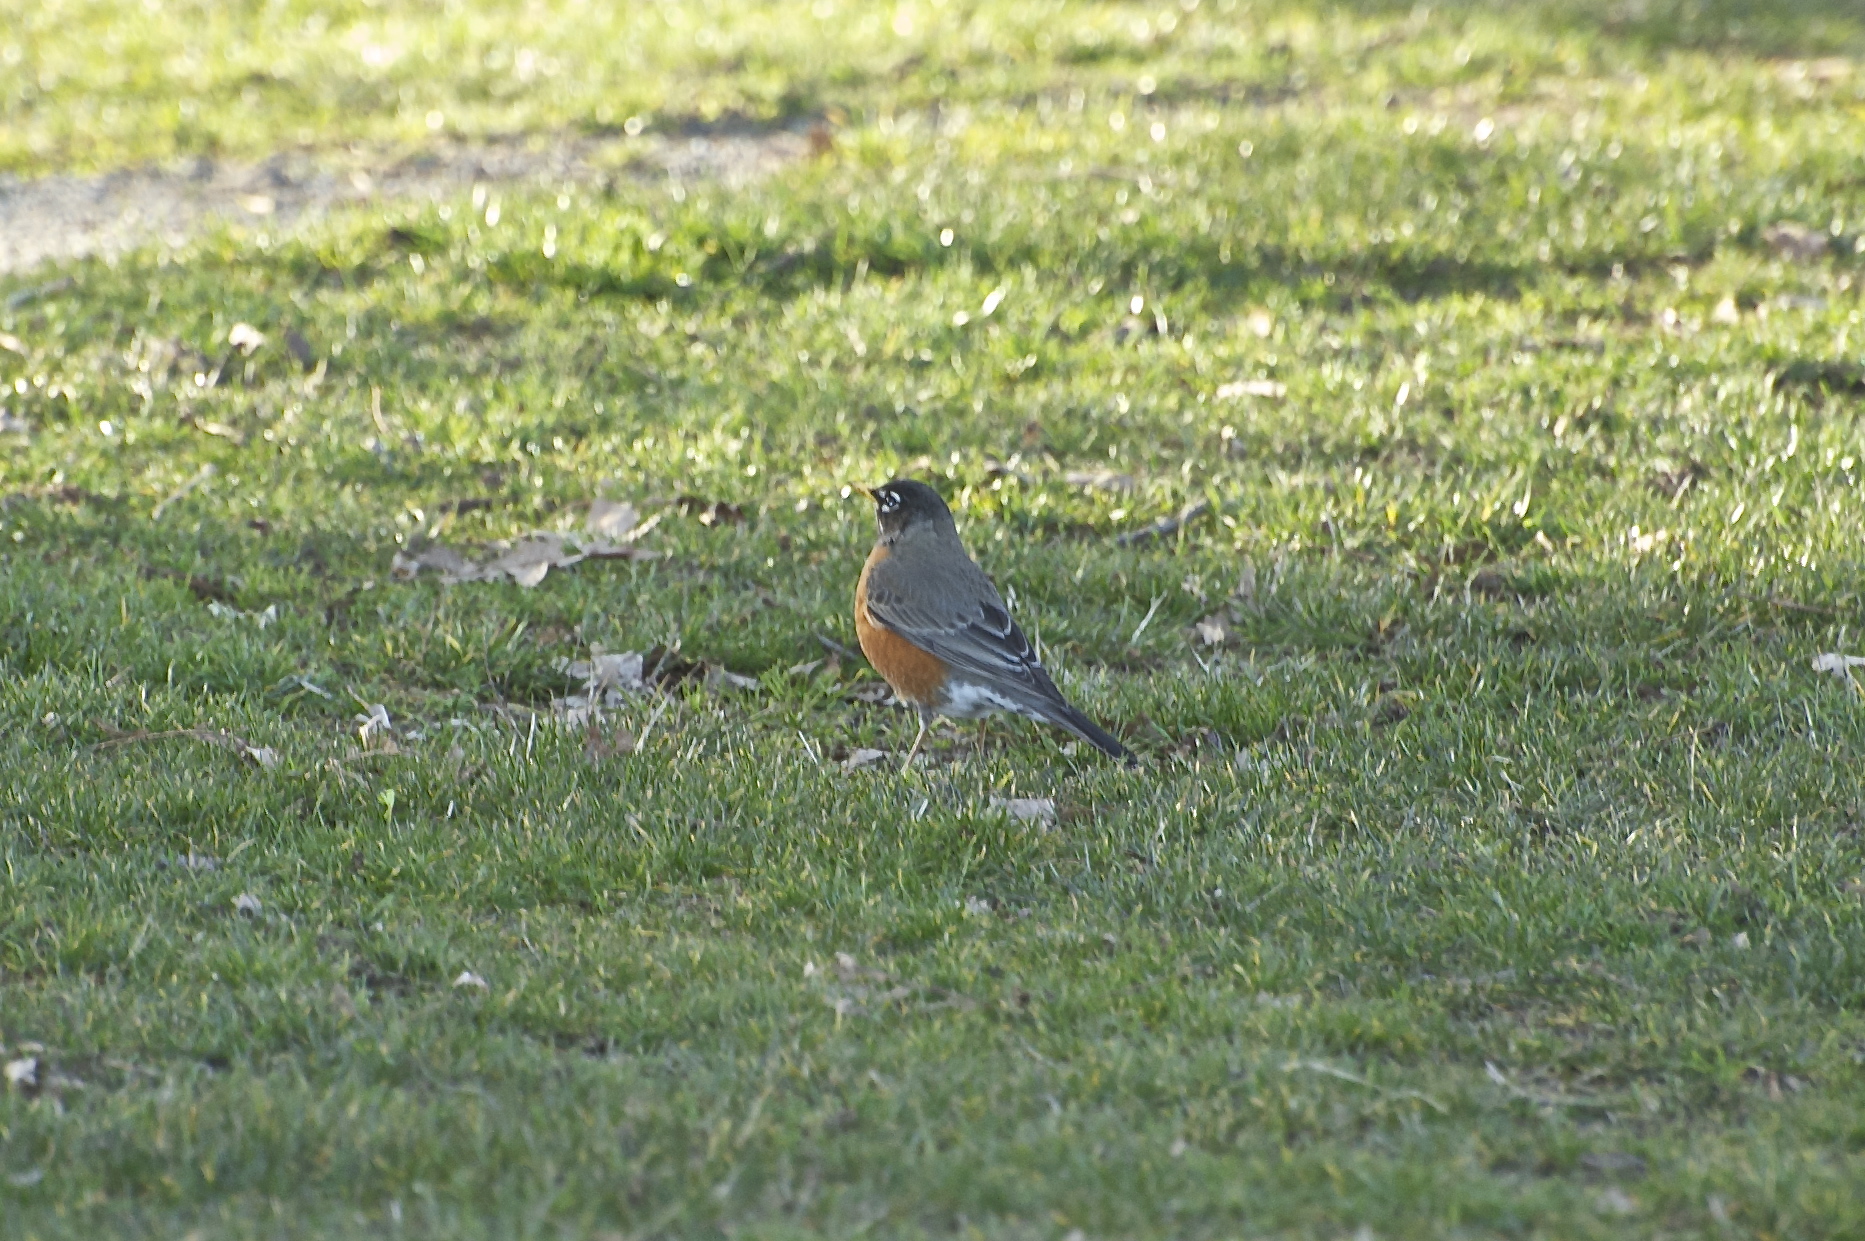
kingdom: Animalia
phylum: Chordata
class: Aves
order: Passeriformes
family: Turdidae
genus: Turdus
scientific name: Turdus migratorius
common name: American robin
